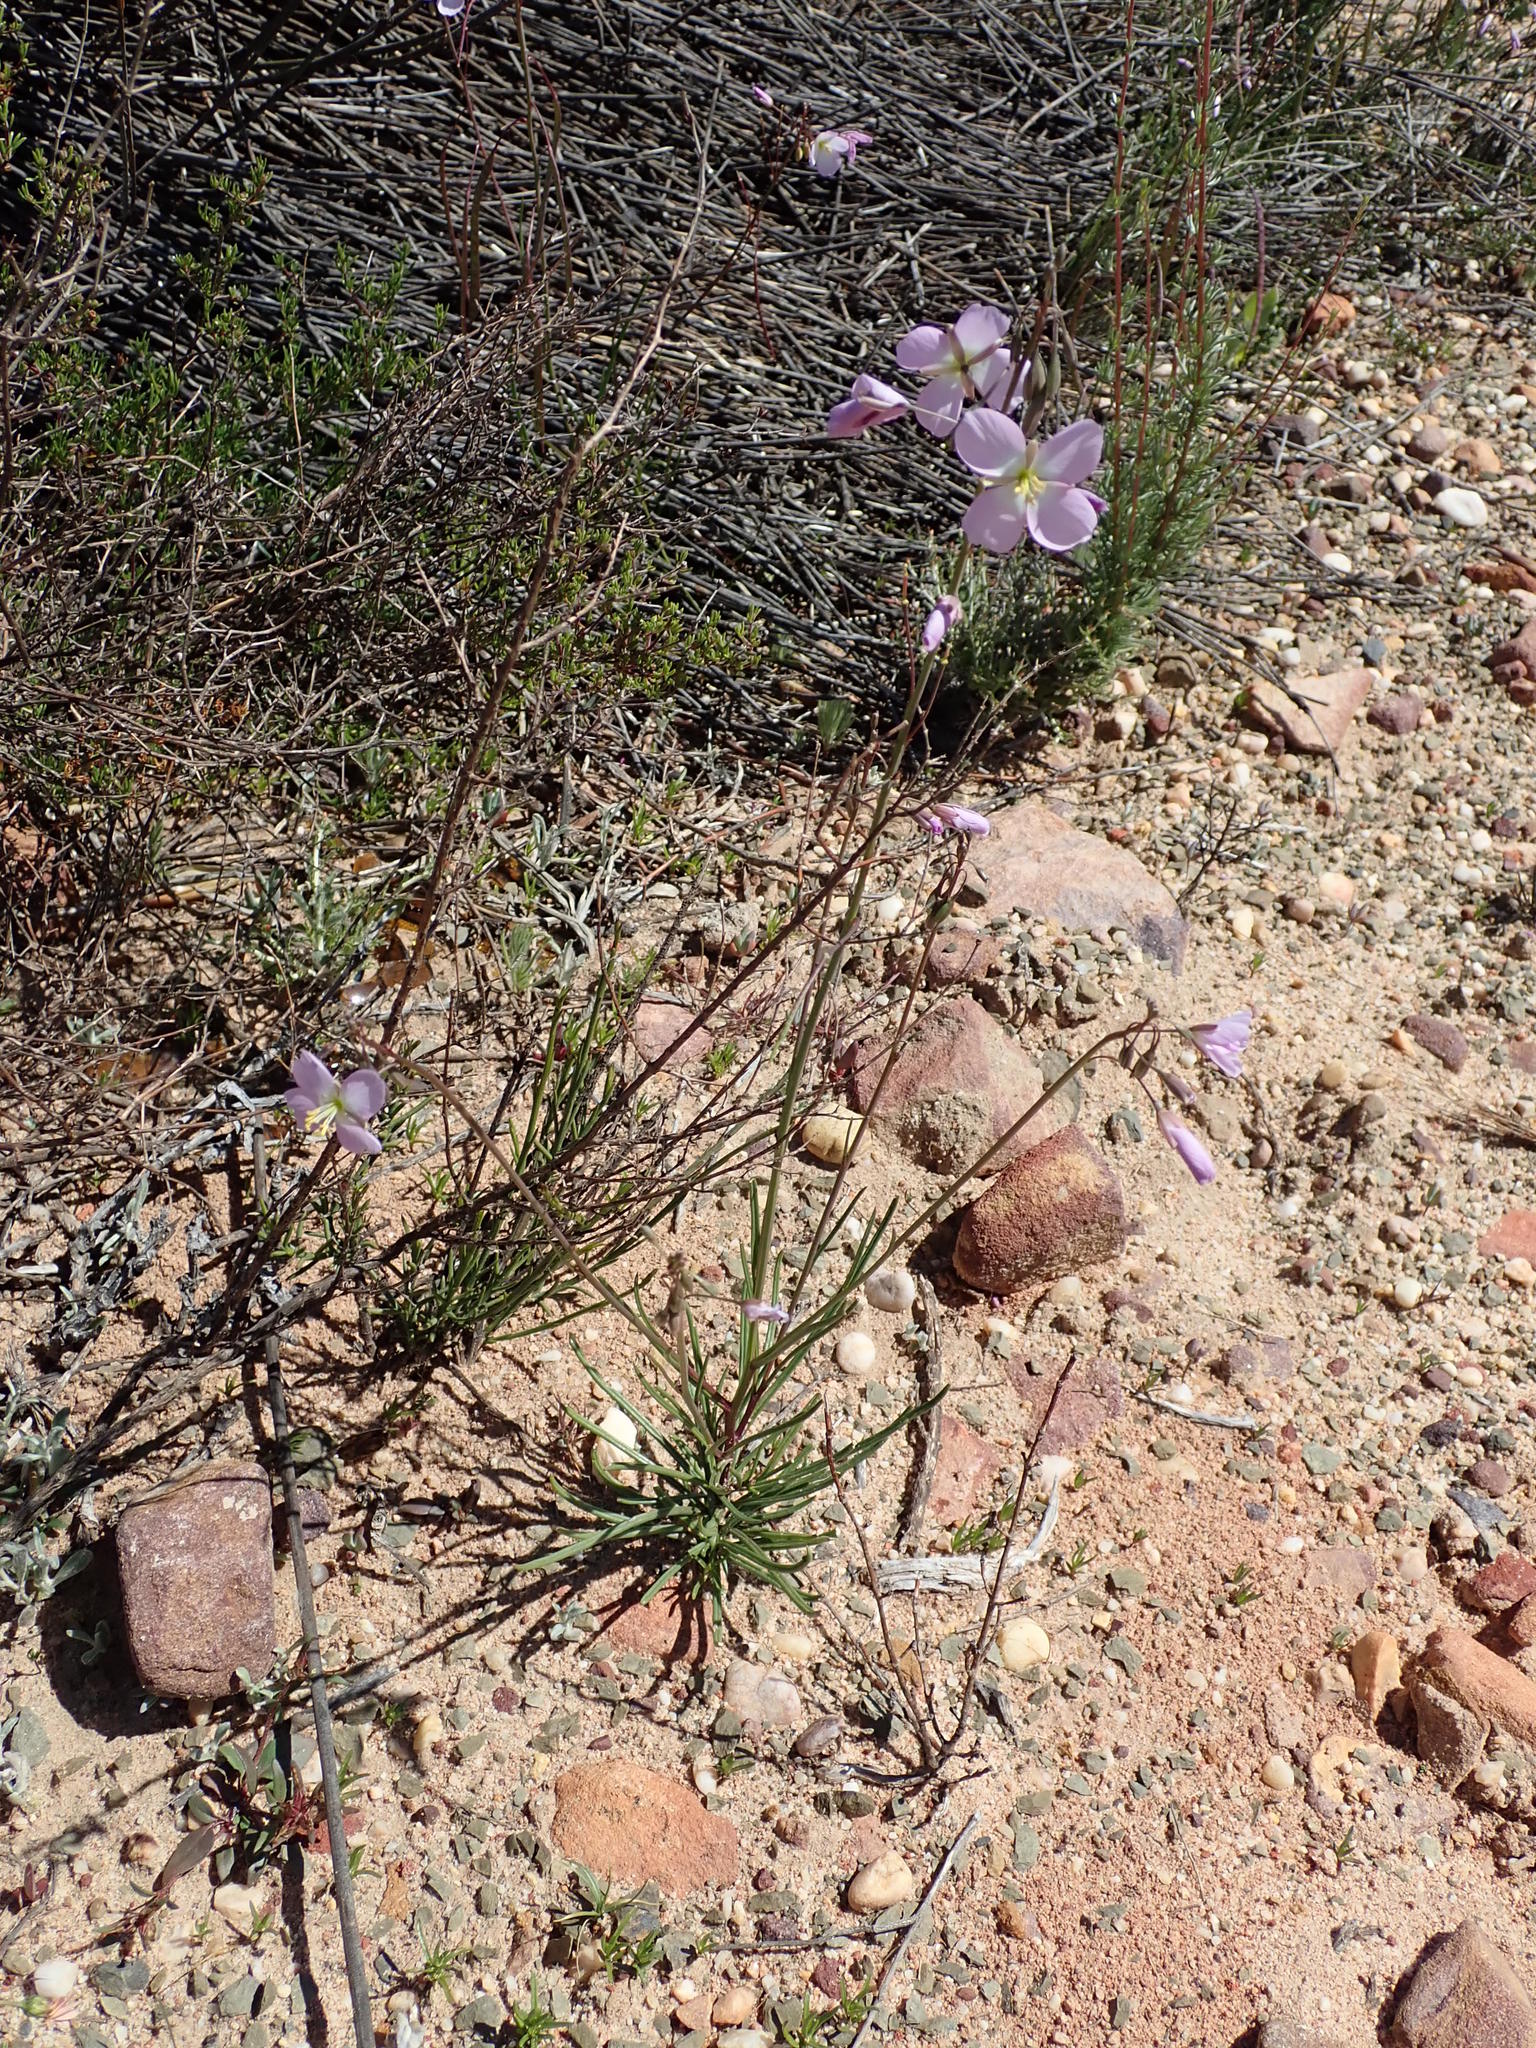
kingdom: Plantae
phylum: Tracheophyta
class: Magnoliopsida
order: Brassicales
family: Brassicaceae
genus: Heliophila
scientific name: Heliophila carnosa
